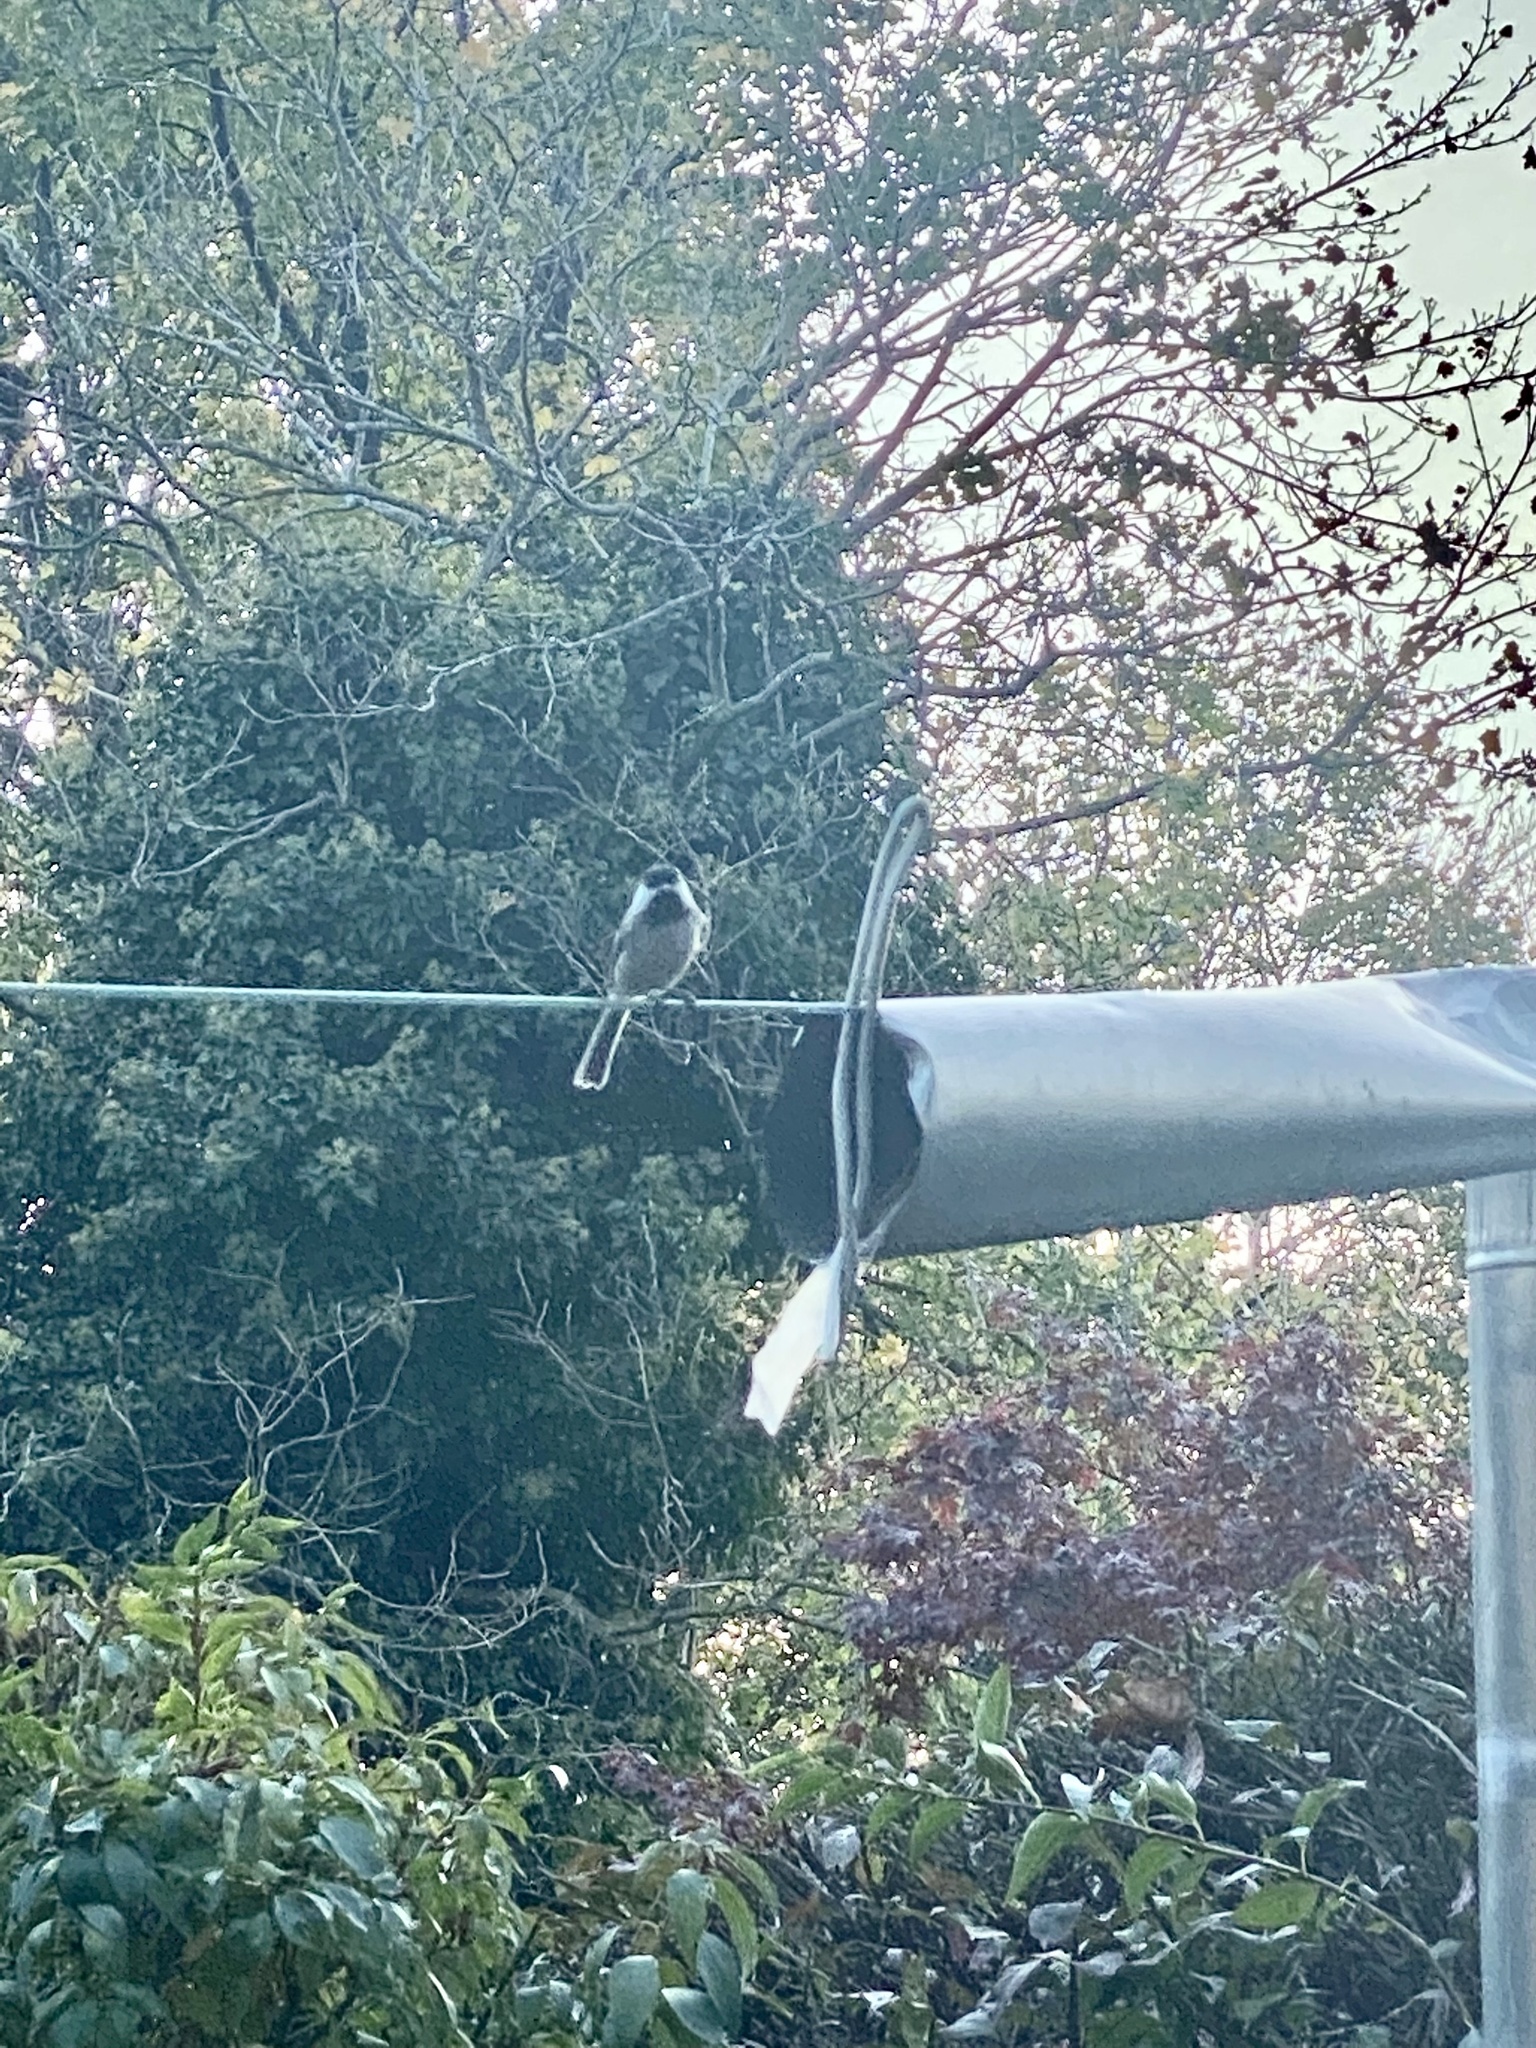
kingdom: Animalia
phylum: Chordata
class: Aves
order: Passeriformes
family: Paridae
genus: Poecile
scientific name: Poecile atricapillus
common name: Black-capped chickadee
